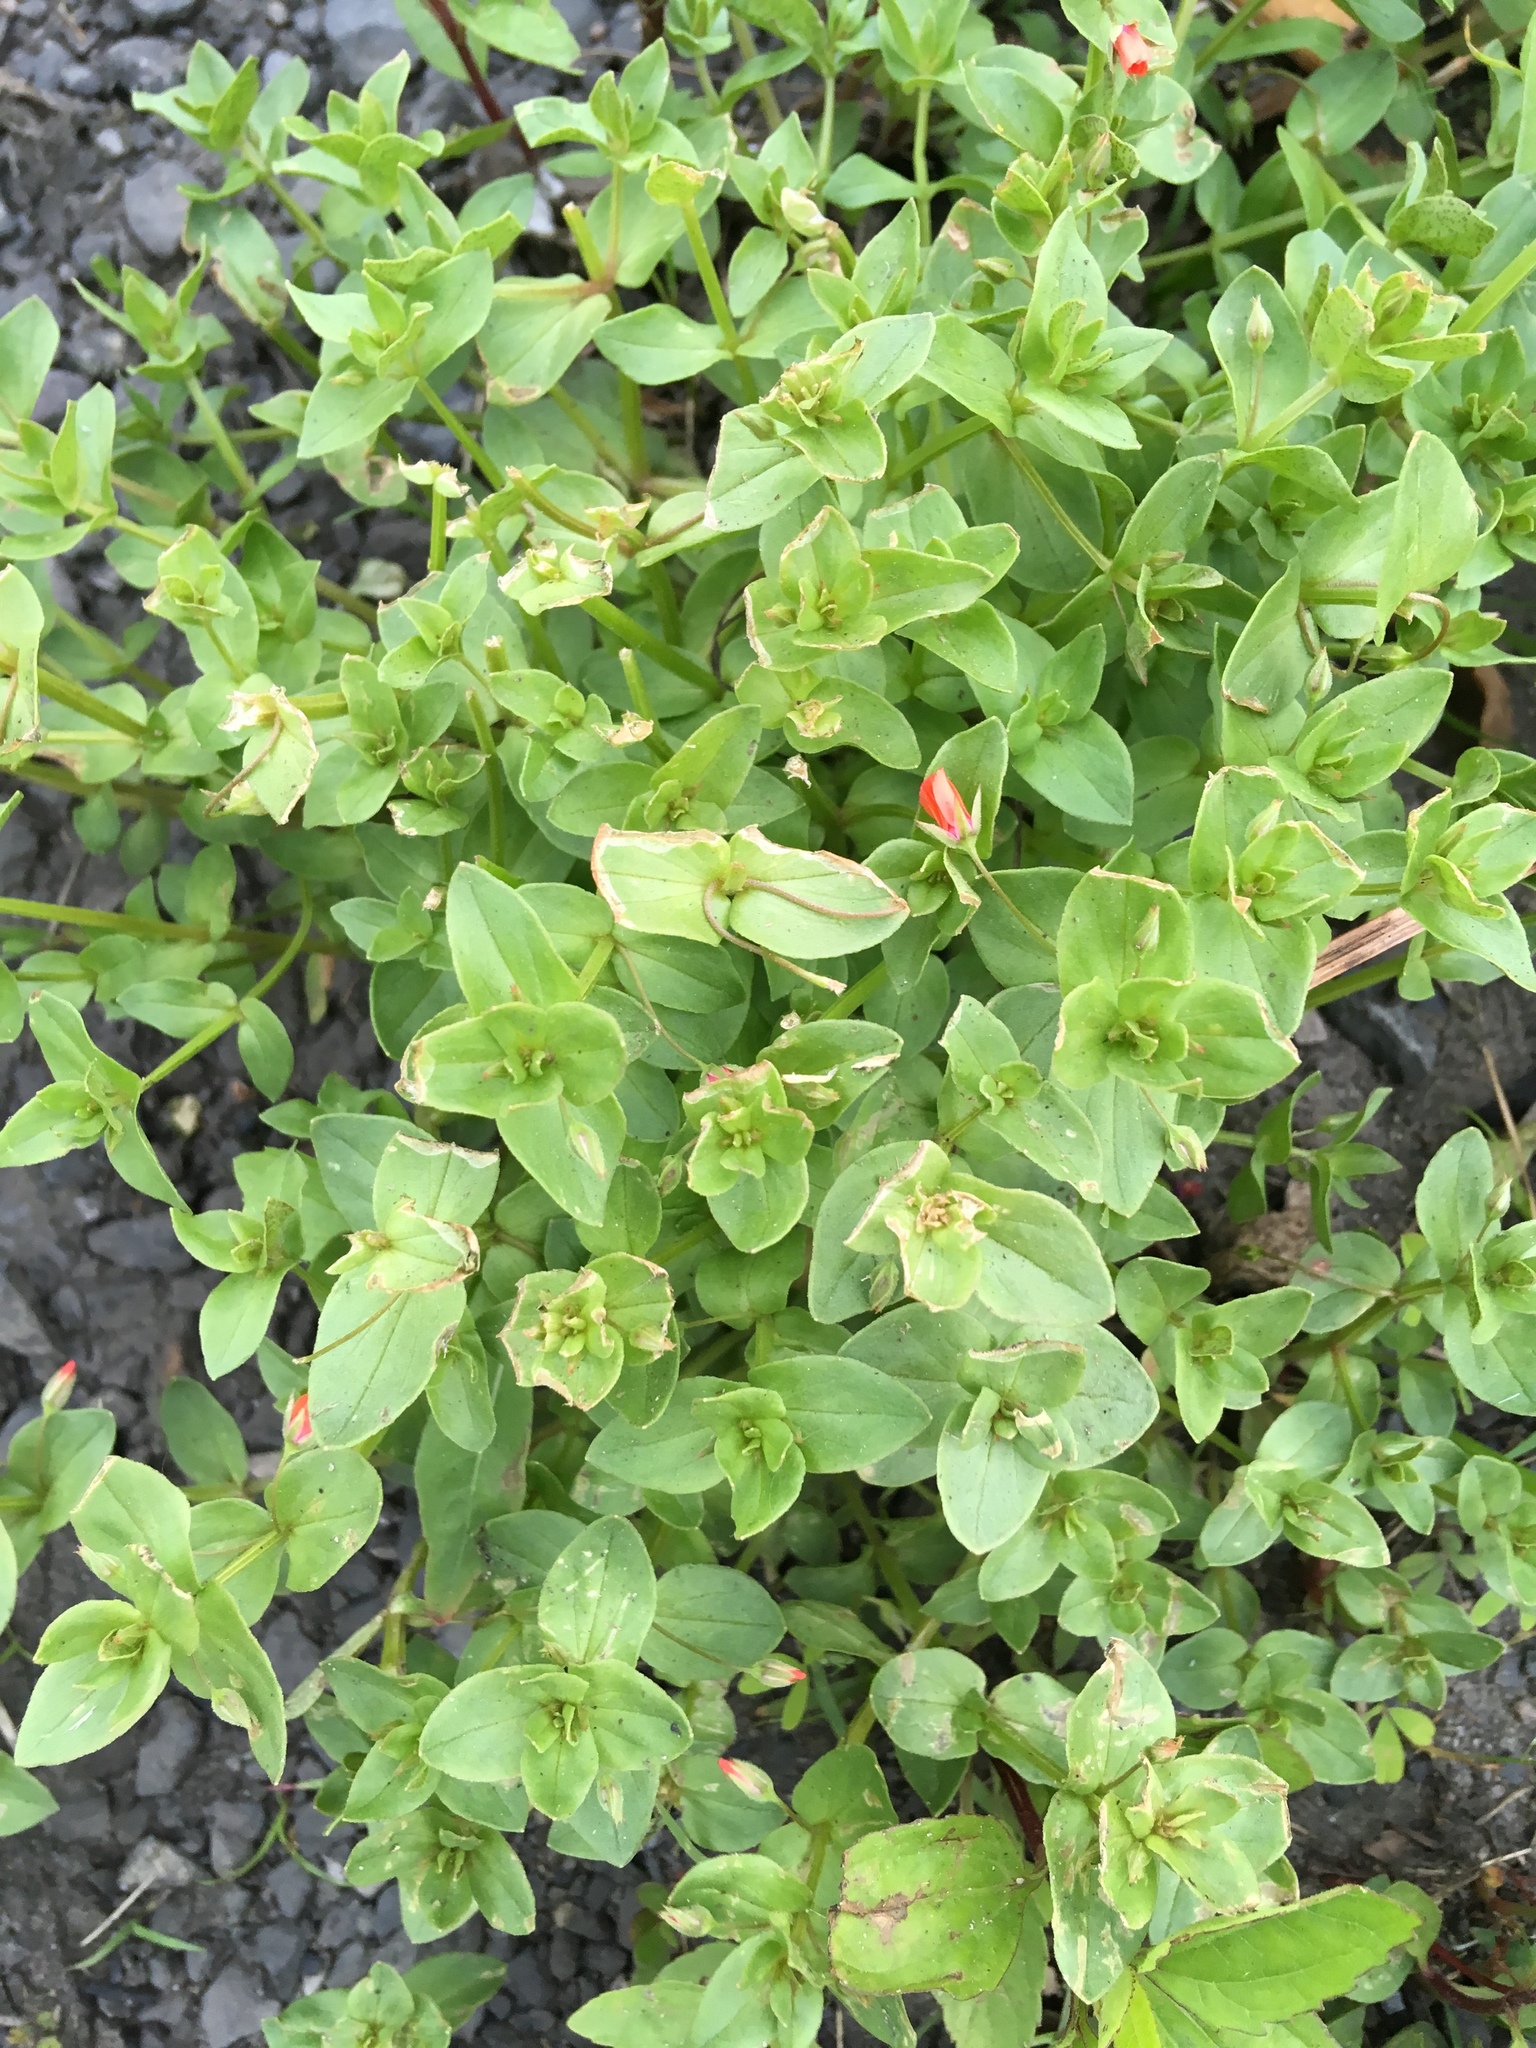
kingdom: Plantae
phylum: Tracheophyta
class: Magnoliopsida
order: Ericales
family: Primulaceae
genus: Lysimachia
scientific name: Lysimachia arvensis
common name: Scarlet pimpernel
